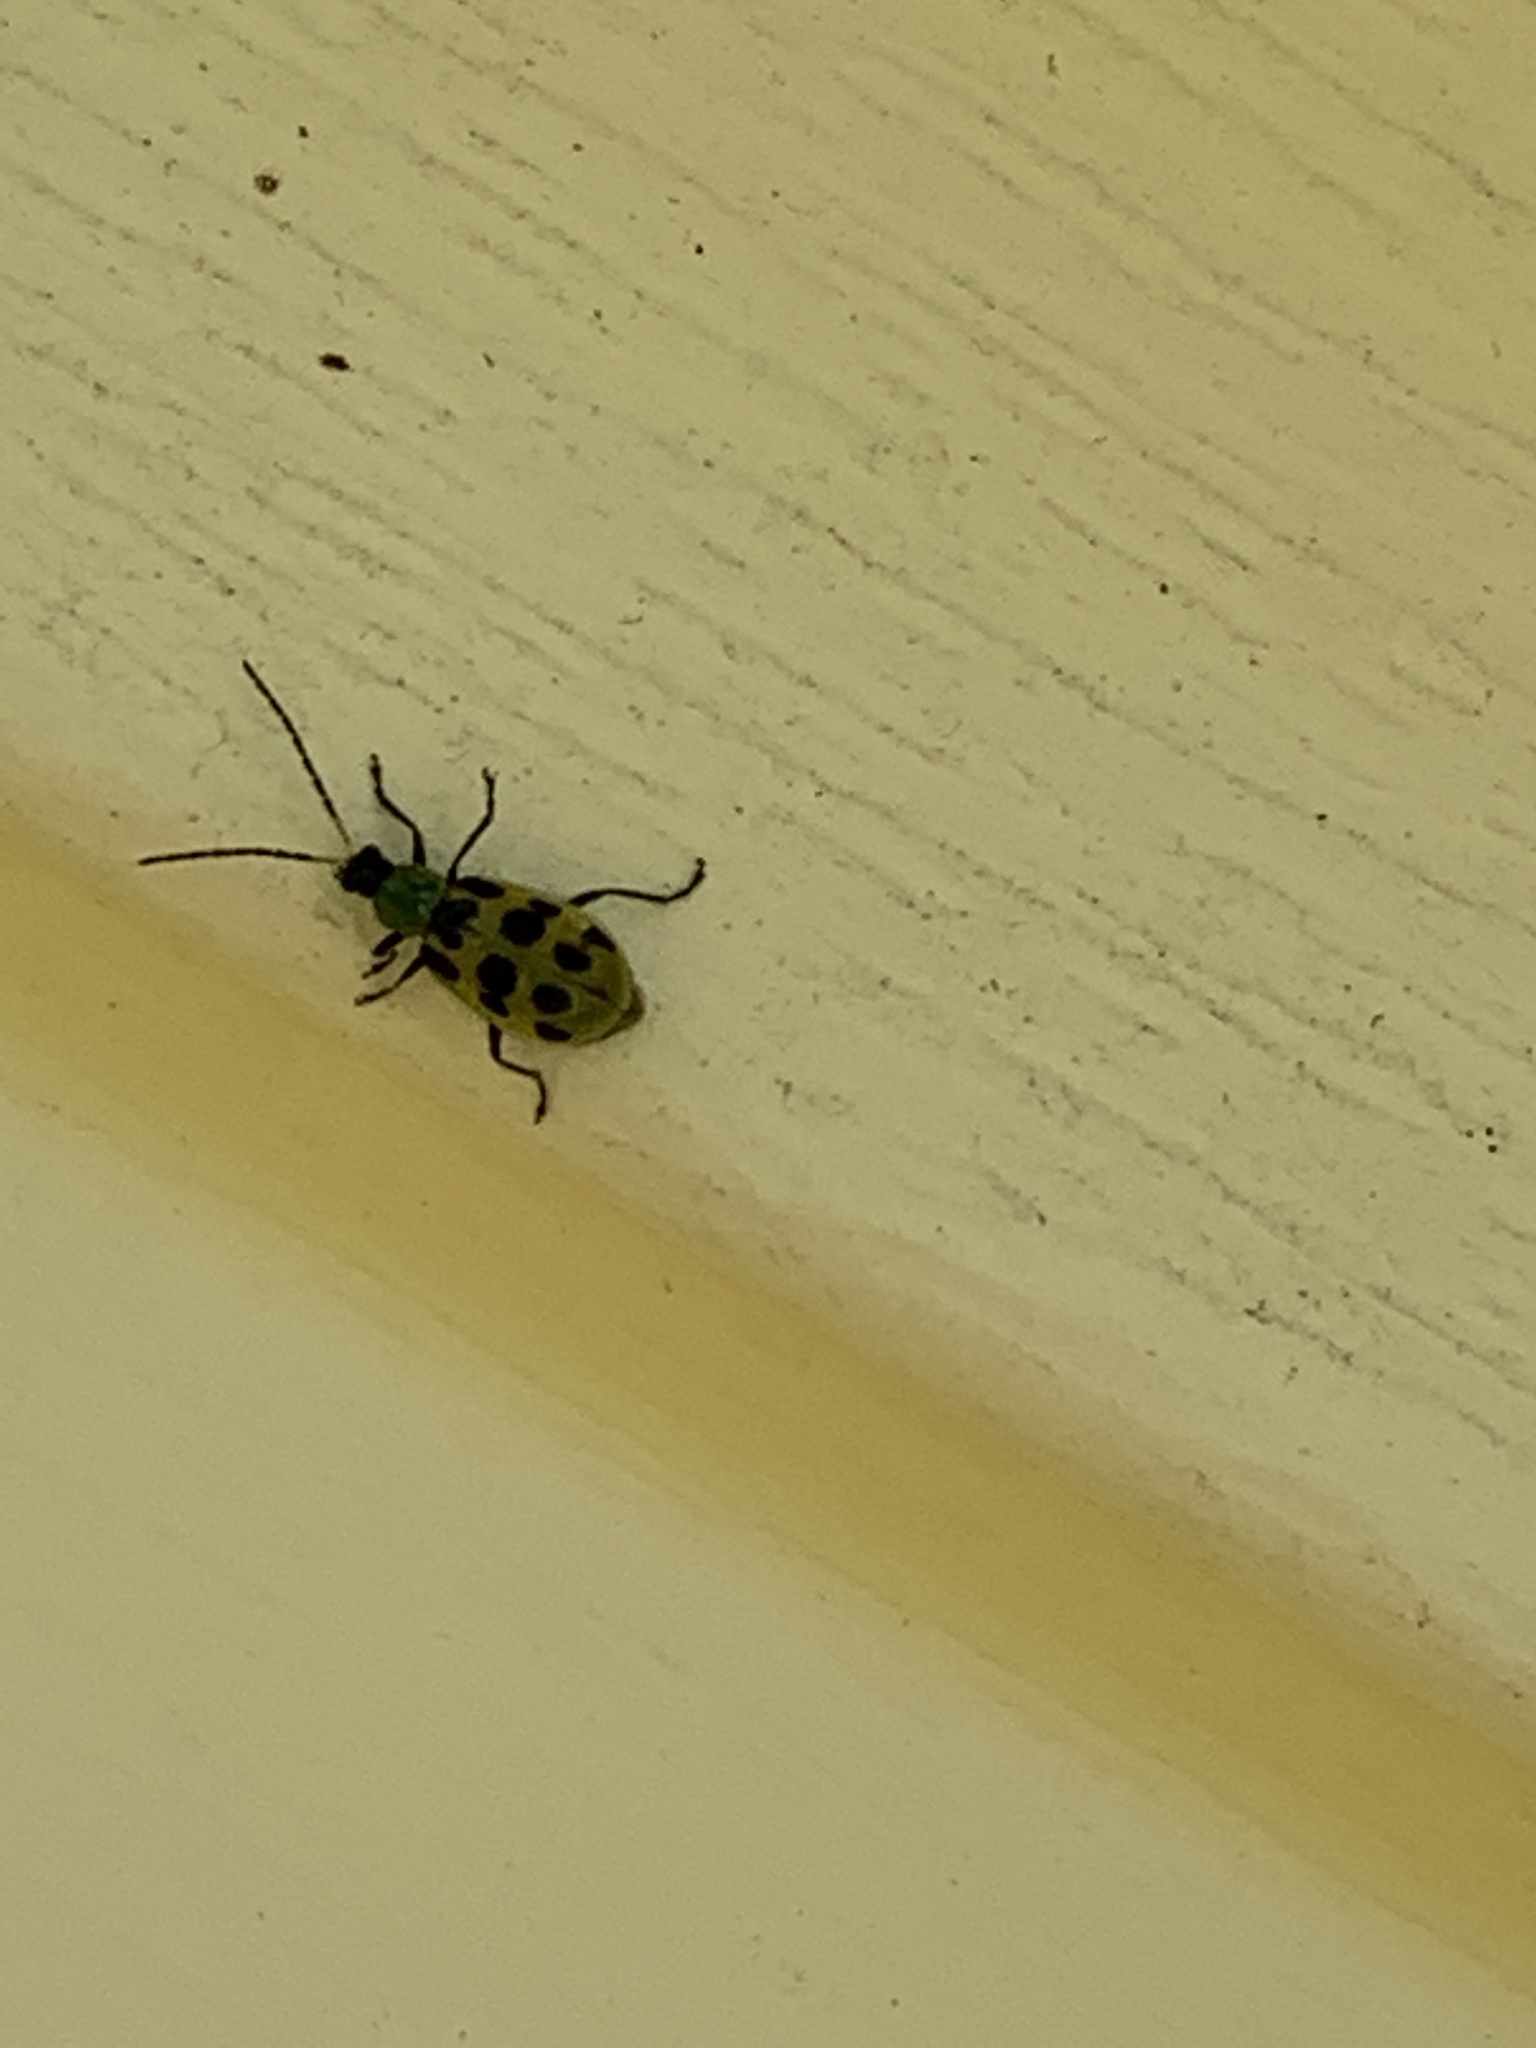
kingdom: Animalia
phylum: Arthropoda
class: Insecta
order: Coleoptera
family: Chrysomelidae
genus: Diabrotica
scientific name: Diabrotica undecimpunctata
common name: Spotted cucumber beetle
